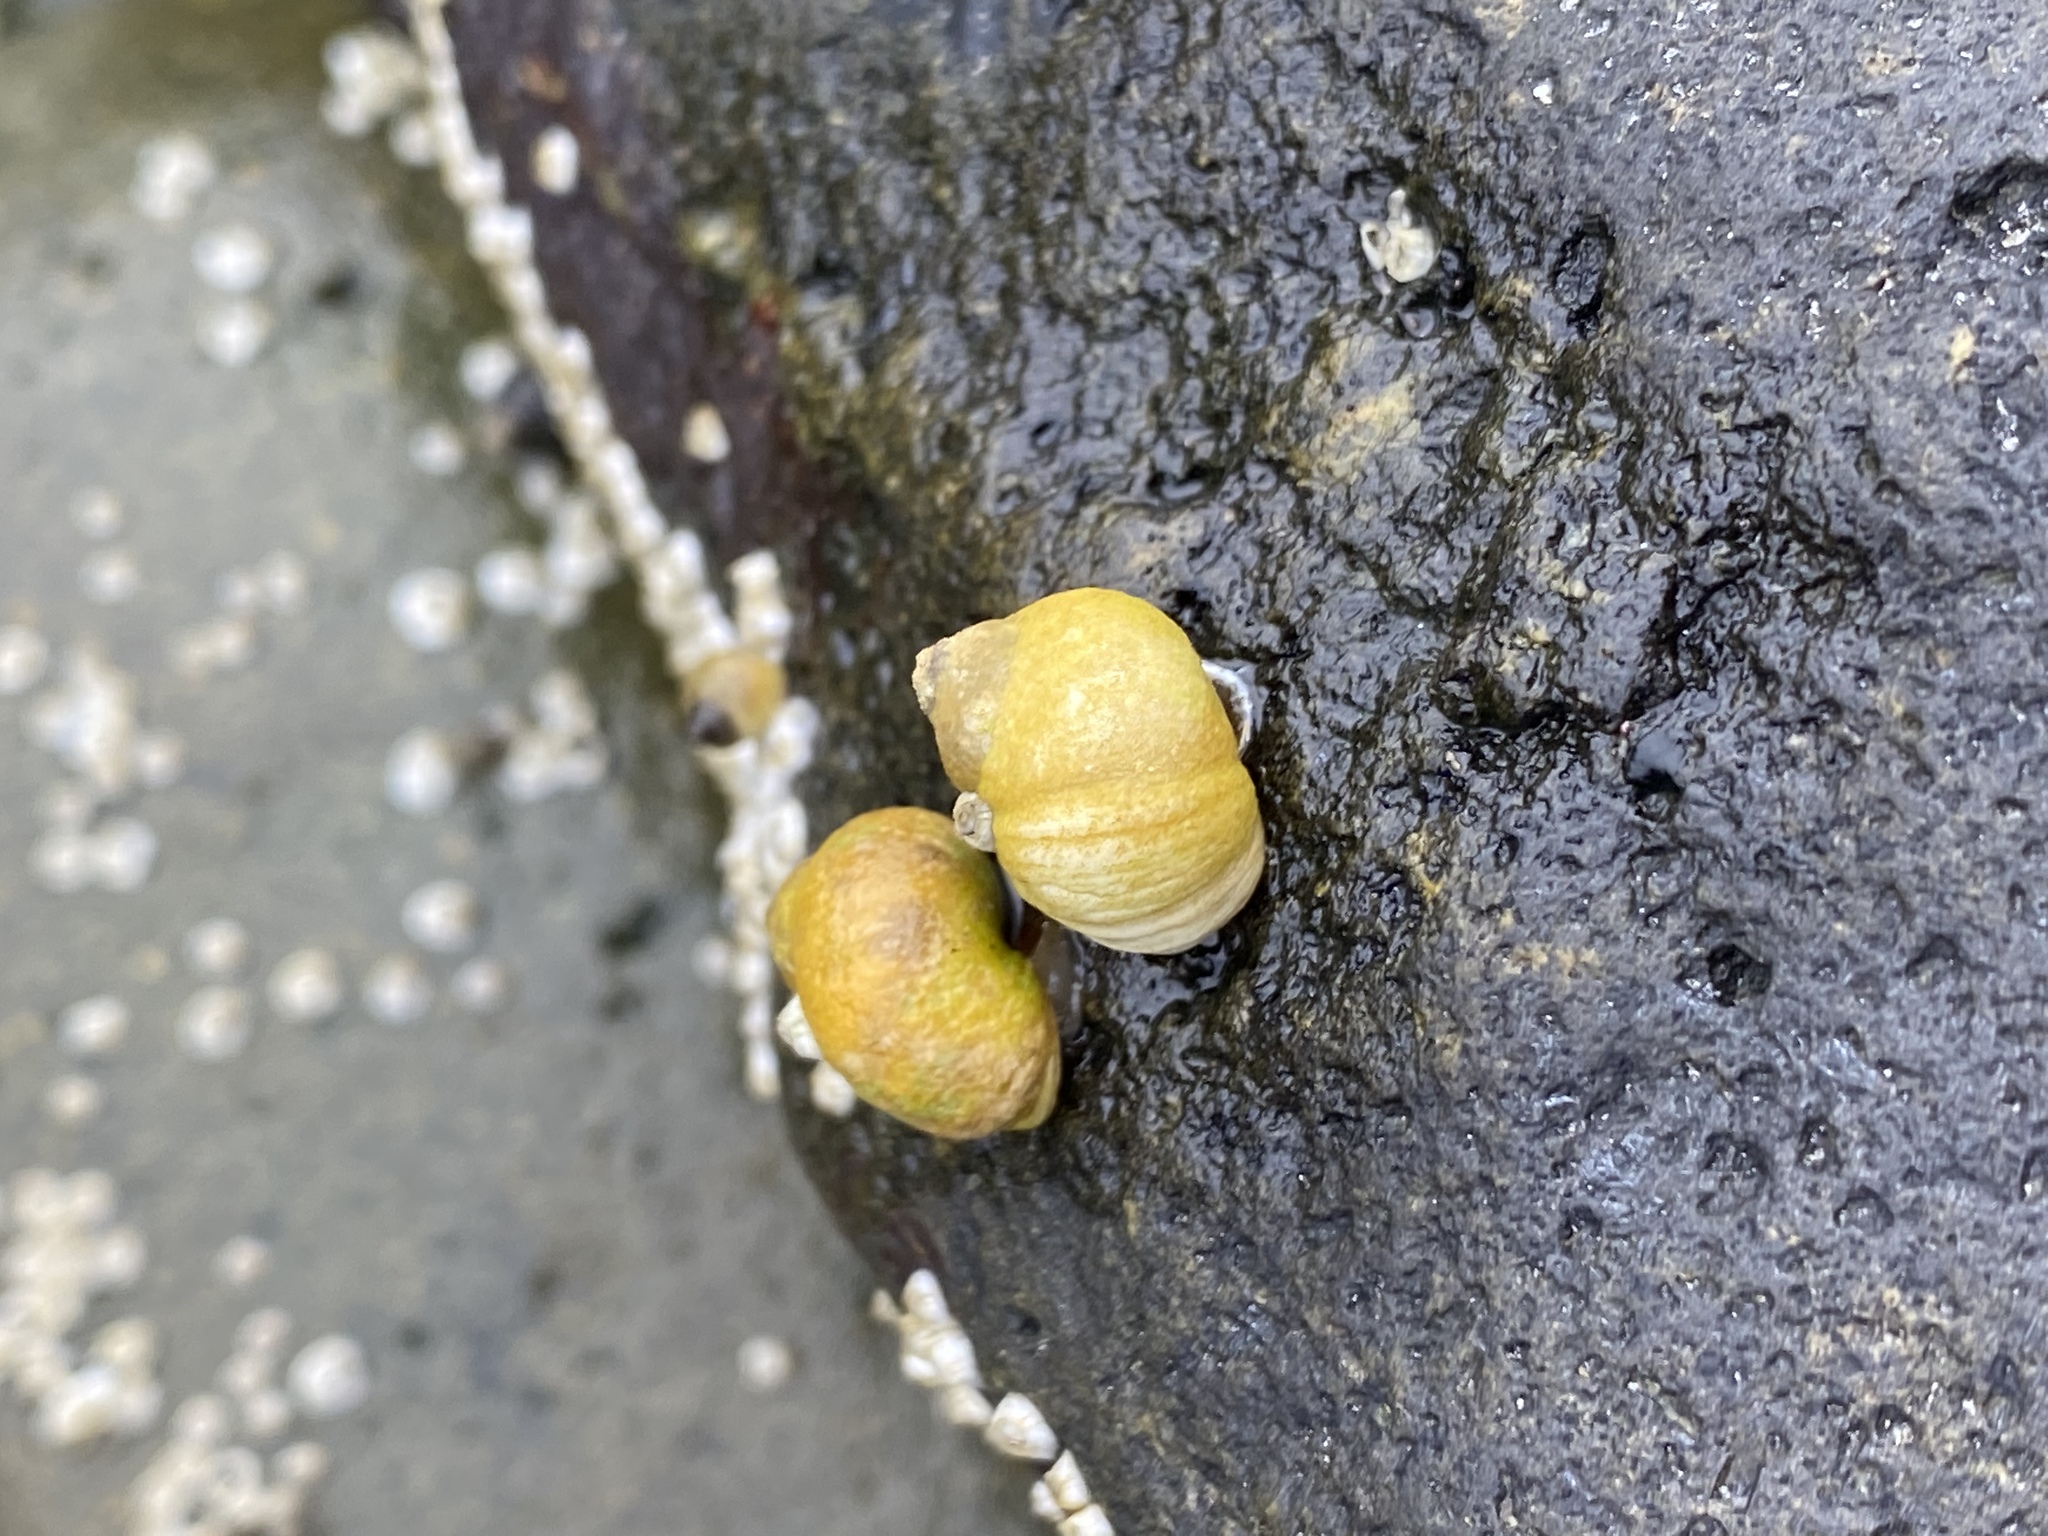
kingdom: Animalia
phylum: Mollusca
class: Gastropoda
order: Littorinimorpha
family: Littorinidae
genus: Littorina
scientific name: Littorina saxatilis
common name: Black-lined periwinkle
